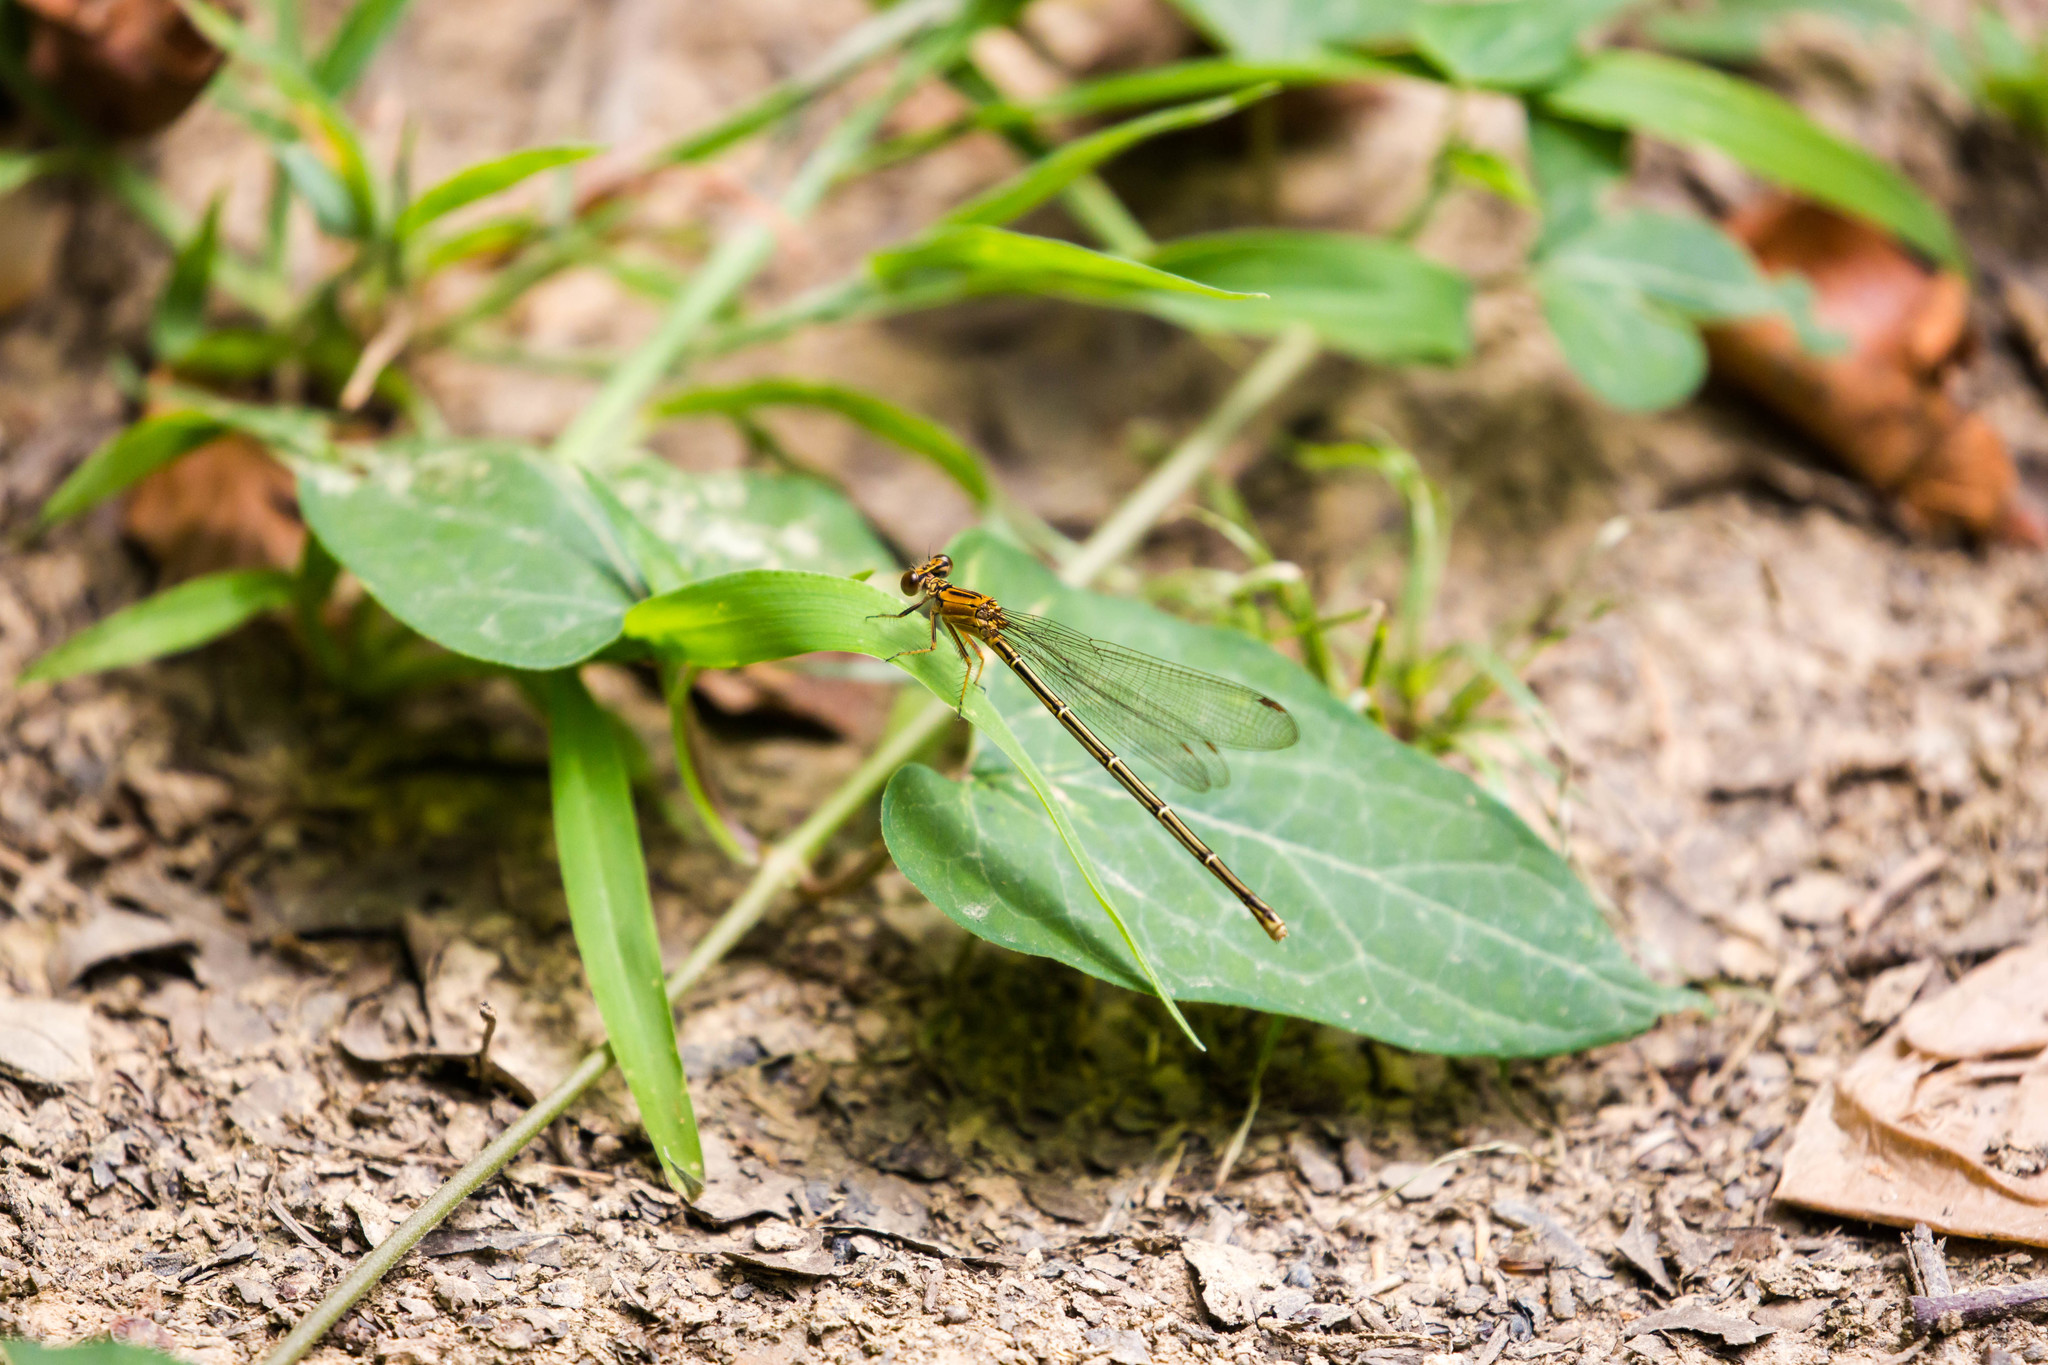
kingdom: Animalia
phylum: Arthropoda
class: Insecta
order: Odonata
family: Coenagrionidae
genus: Argia
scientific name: Argia moesta
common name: Powdered dancer
